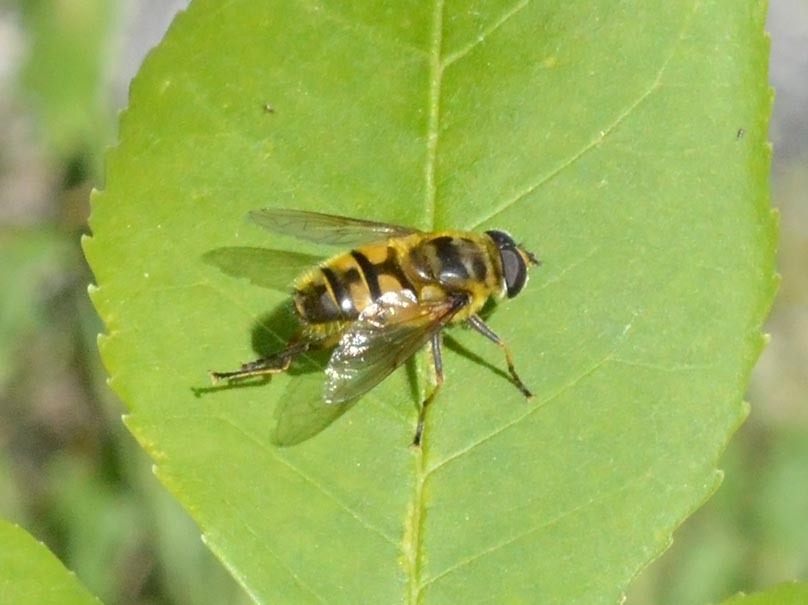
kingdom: Animalia
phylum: Arthropoda
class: Insecta
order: Diptera
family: Syrphidae
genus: Myathropa
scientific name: Myathropa florea
